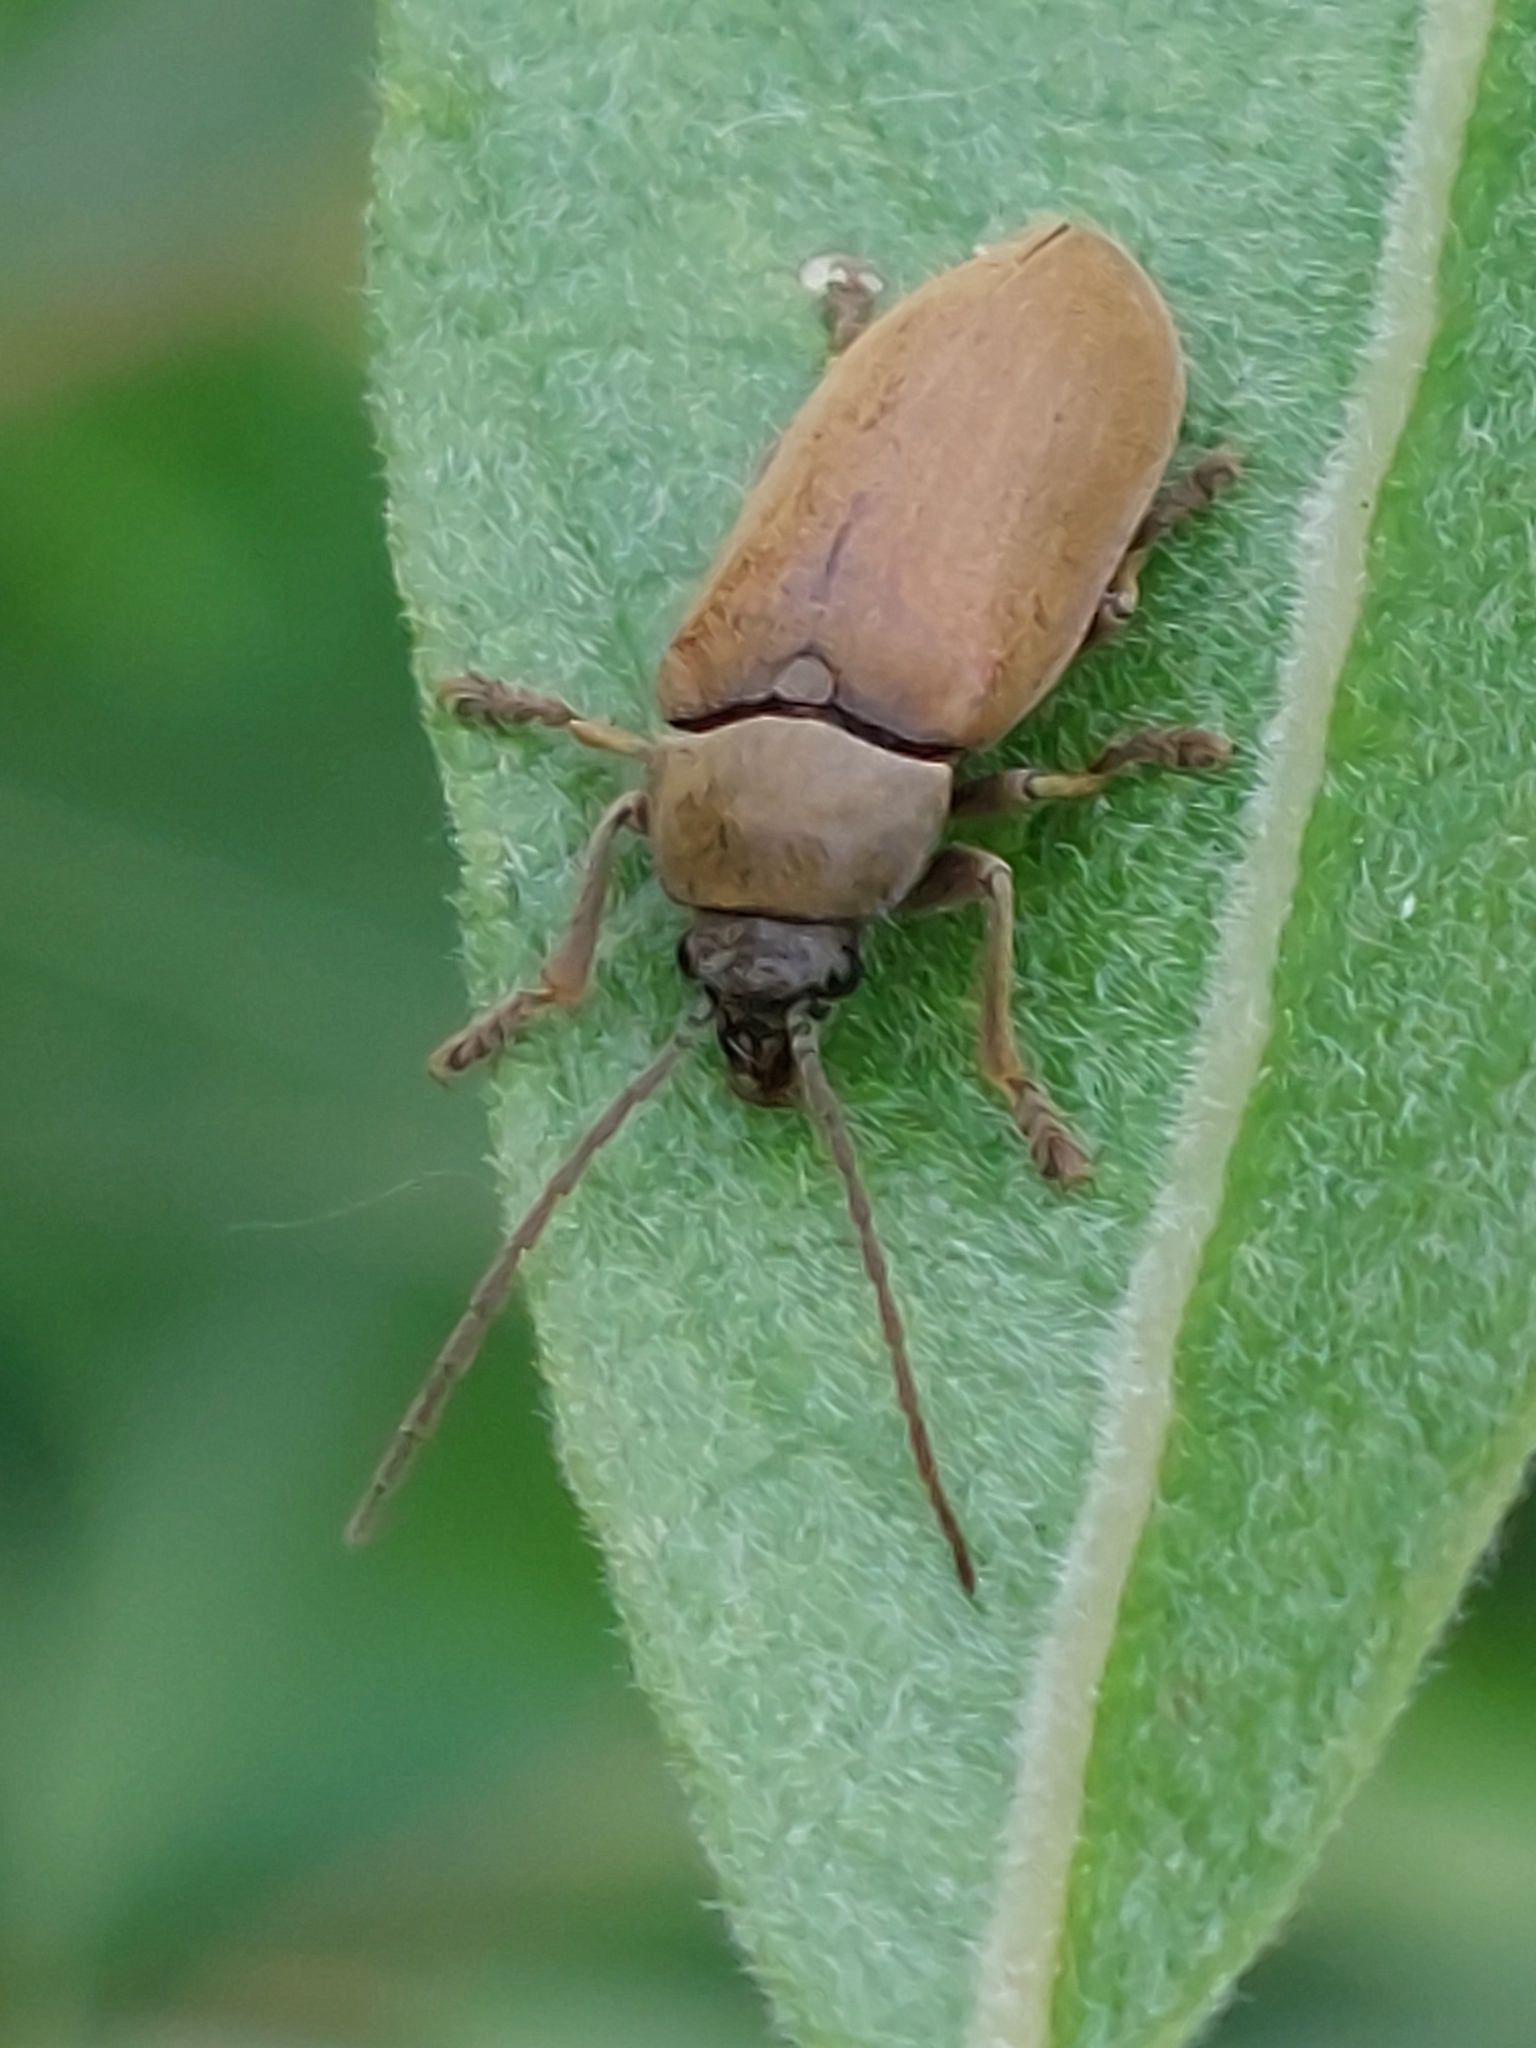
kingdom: Animalia
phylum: Arthropoda
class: Insecta
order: Coleoptera
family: Dascillidae
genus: Dascillus
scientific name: Dascillus cervinus
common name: Orchid beetle
